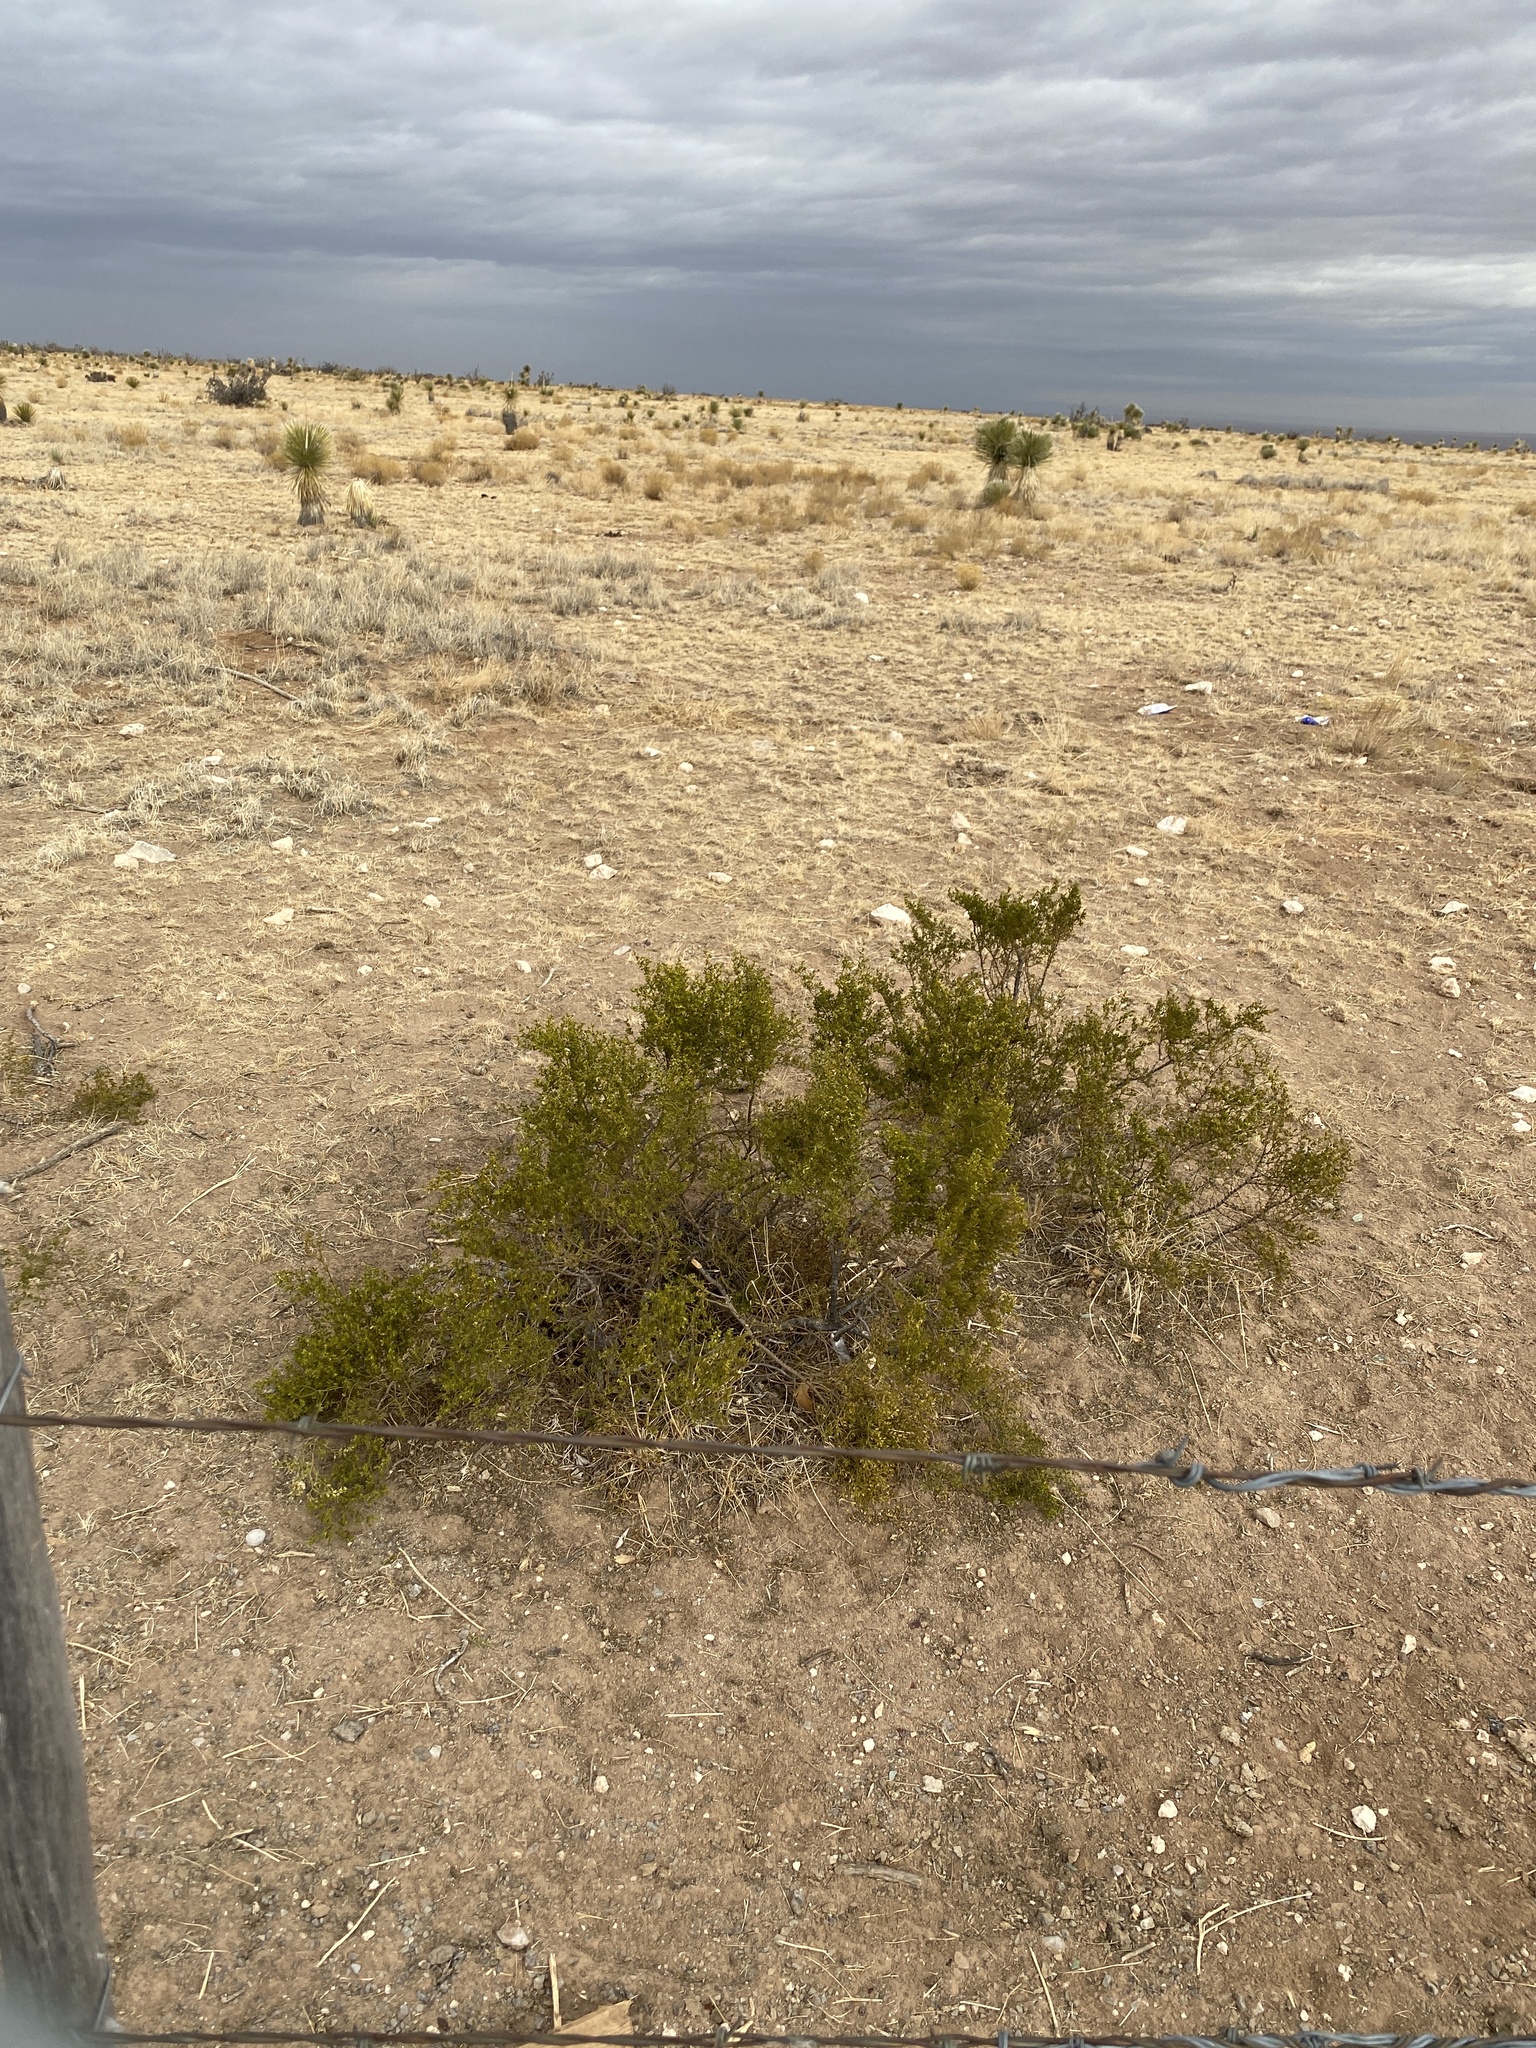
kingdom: Plantae
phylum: Tracheophyta
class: Magnoliopsida
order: Zygophyllales
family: Zygophyllaceae
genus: Larrea
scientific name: Larrea tridentata
